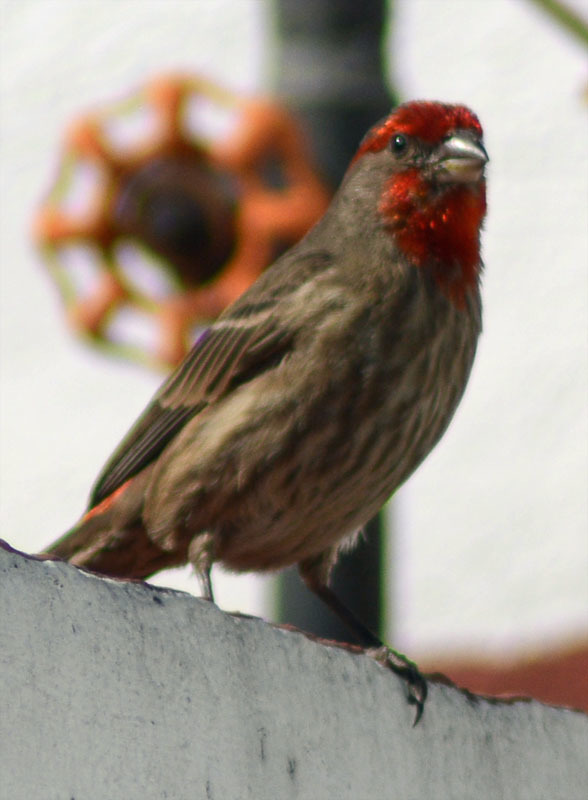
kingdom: Animalia
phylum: Chordata
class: Aves
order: Passeriformes
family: Fringillidae
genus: Haemorhous
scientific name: Haemorhous mexicanus
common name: House finch
